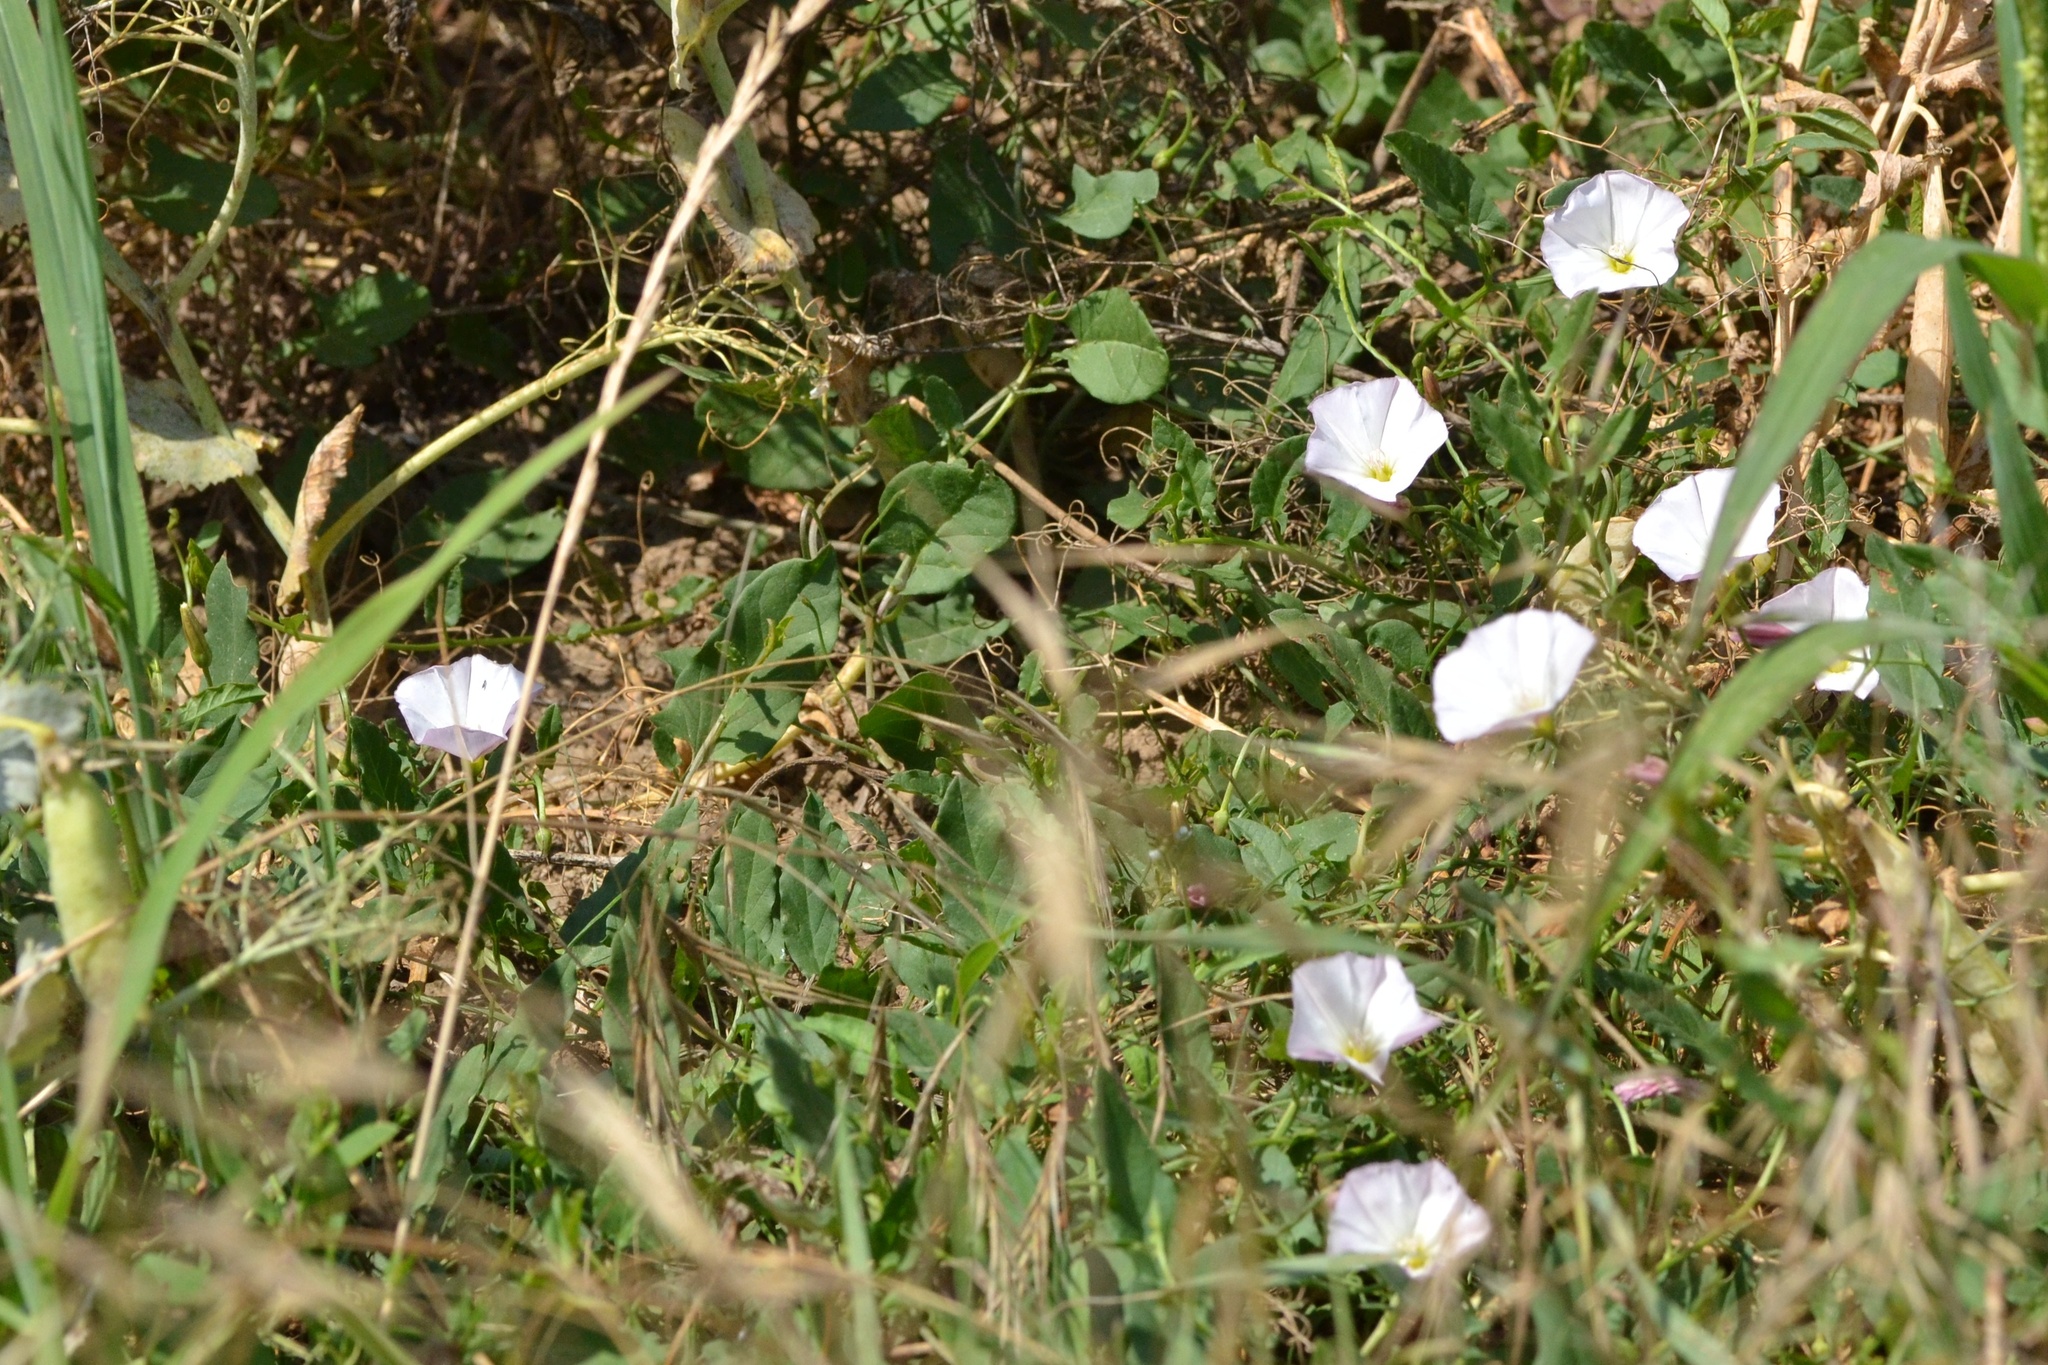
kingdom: Plantae
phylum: Tracheophyta
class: Magnoliopsida
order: Solanales
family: Convolvulaceae
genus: Convolvulus
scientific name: Convolvulus arvensis
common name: Field bindweed
